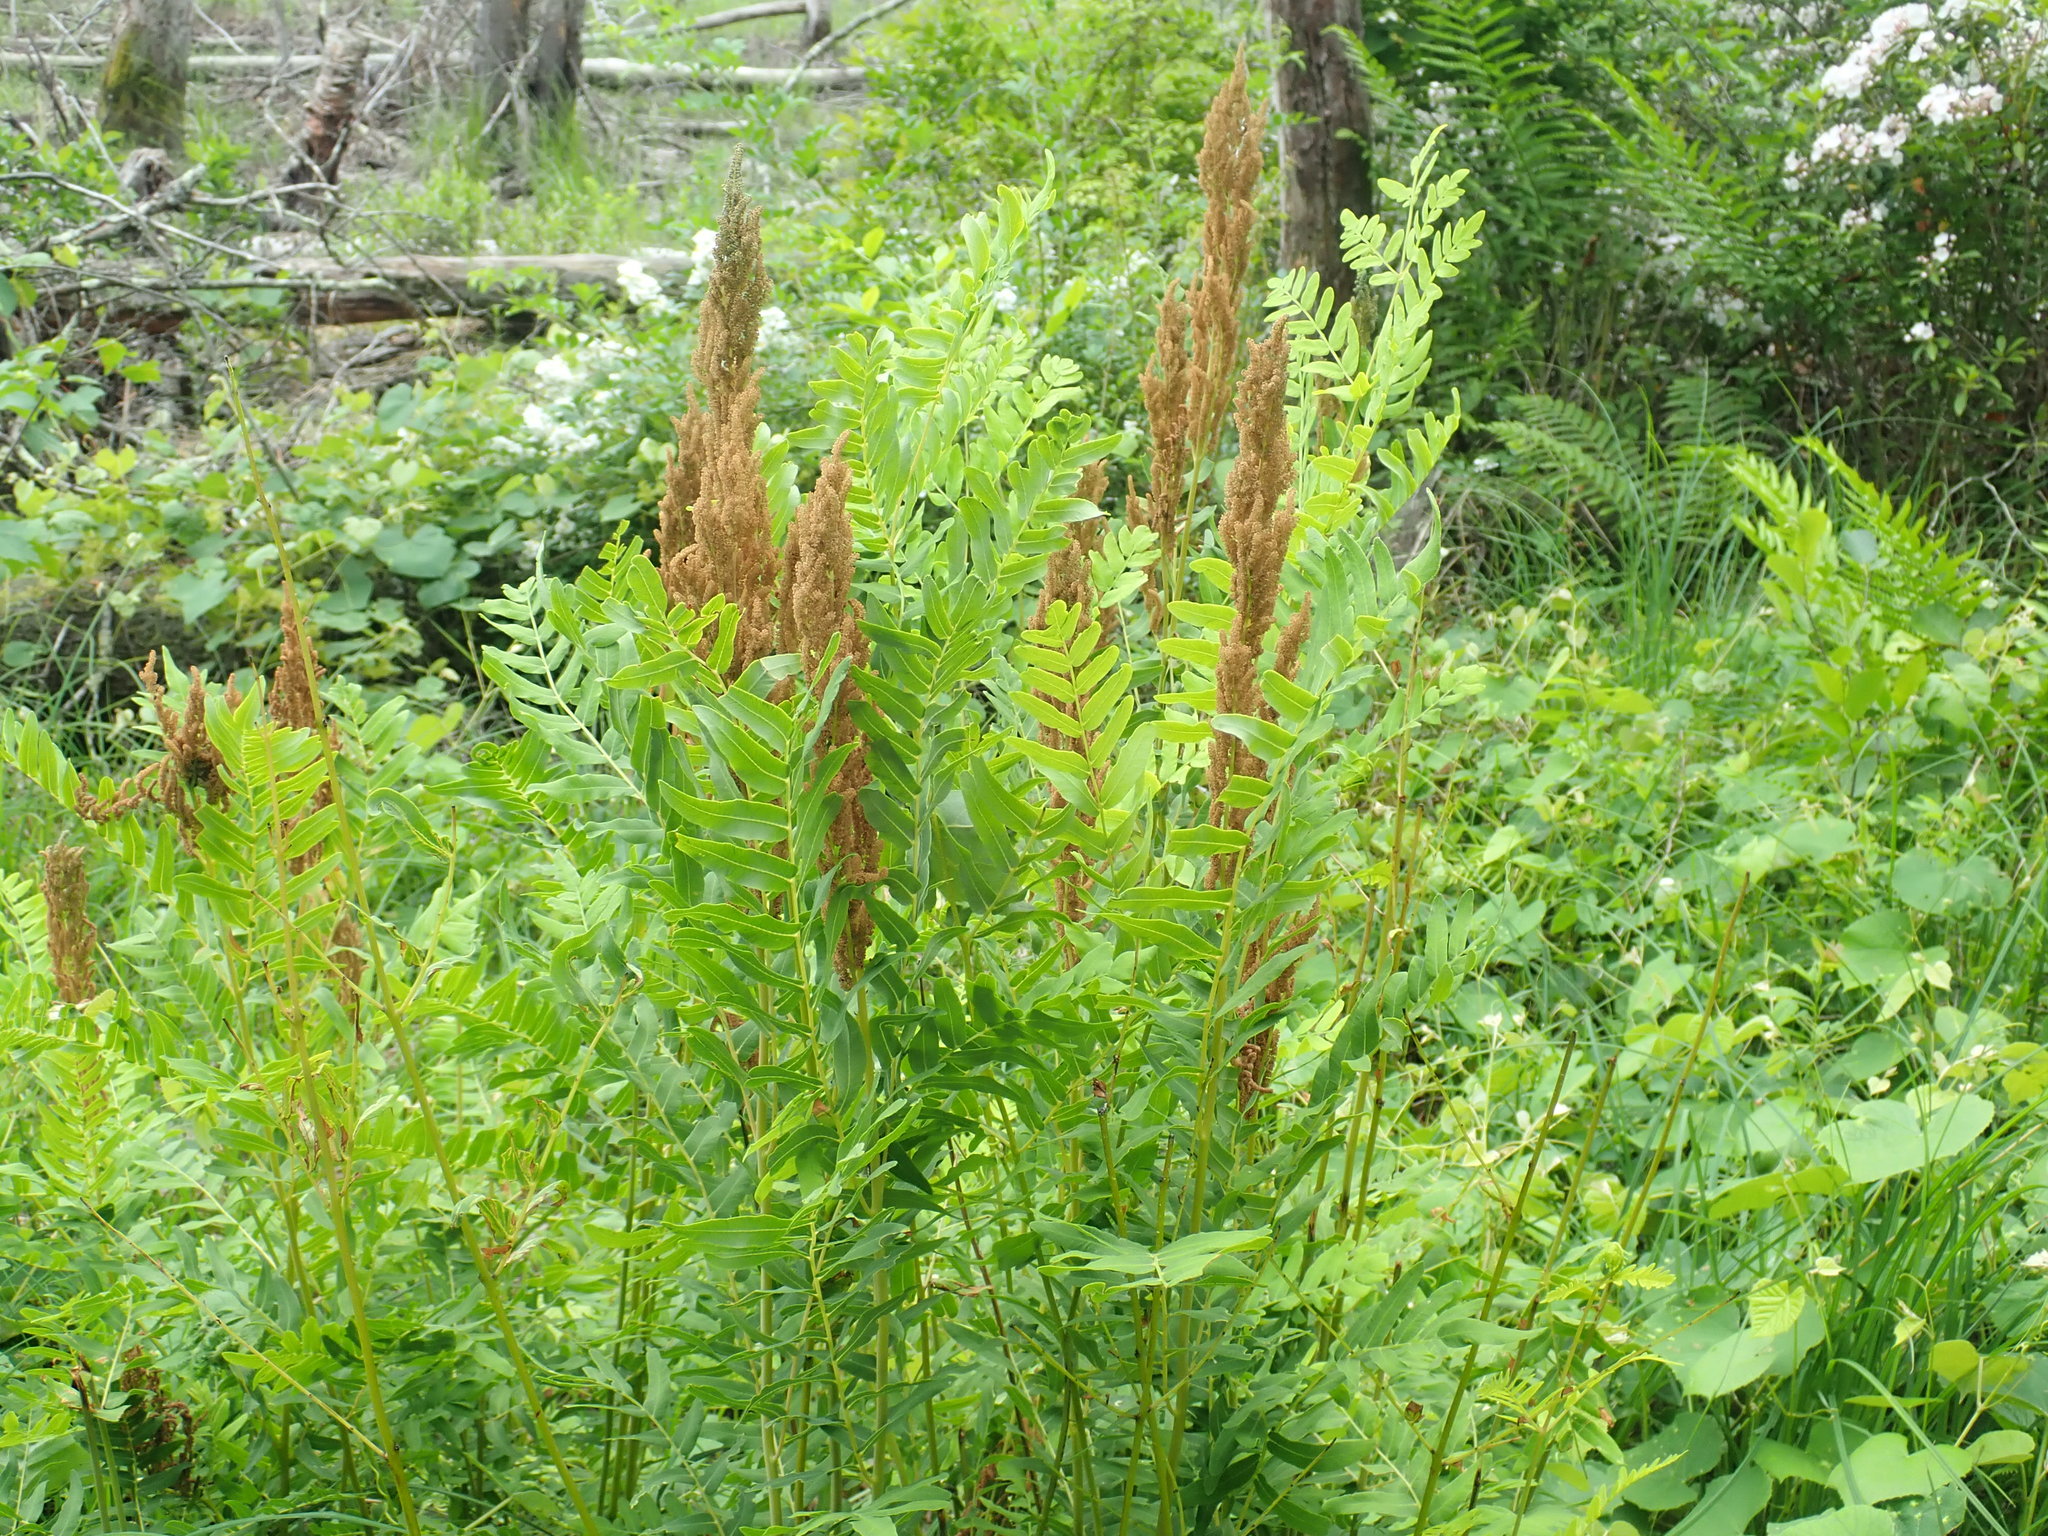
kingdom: Plantae
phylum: Tracheophyta
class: Polypodiopsida
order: Osmundales
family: Osmundaceae
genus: Osmunda
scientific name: Osmunda spectabilis
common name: American royal fern
